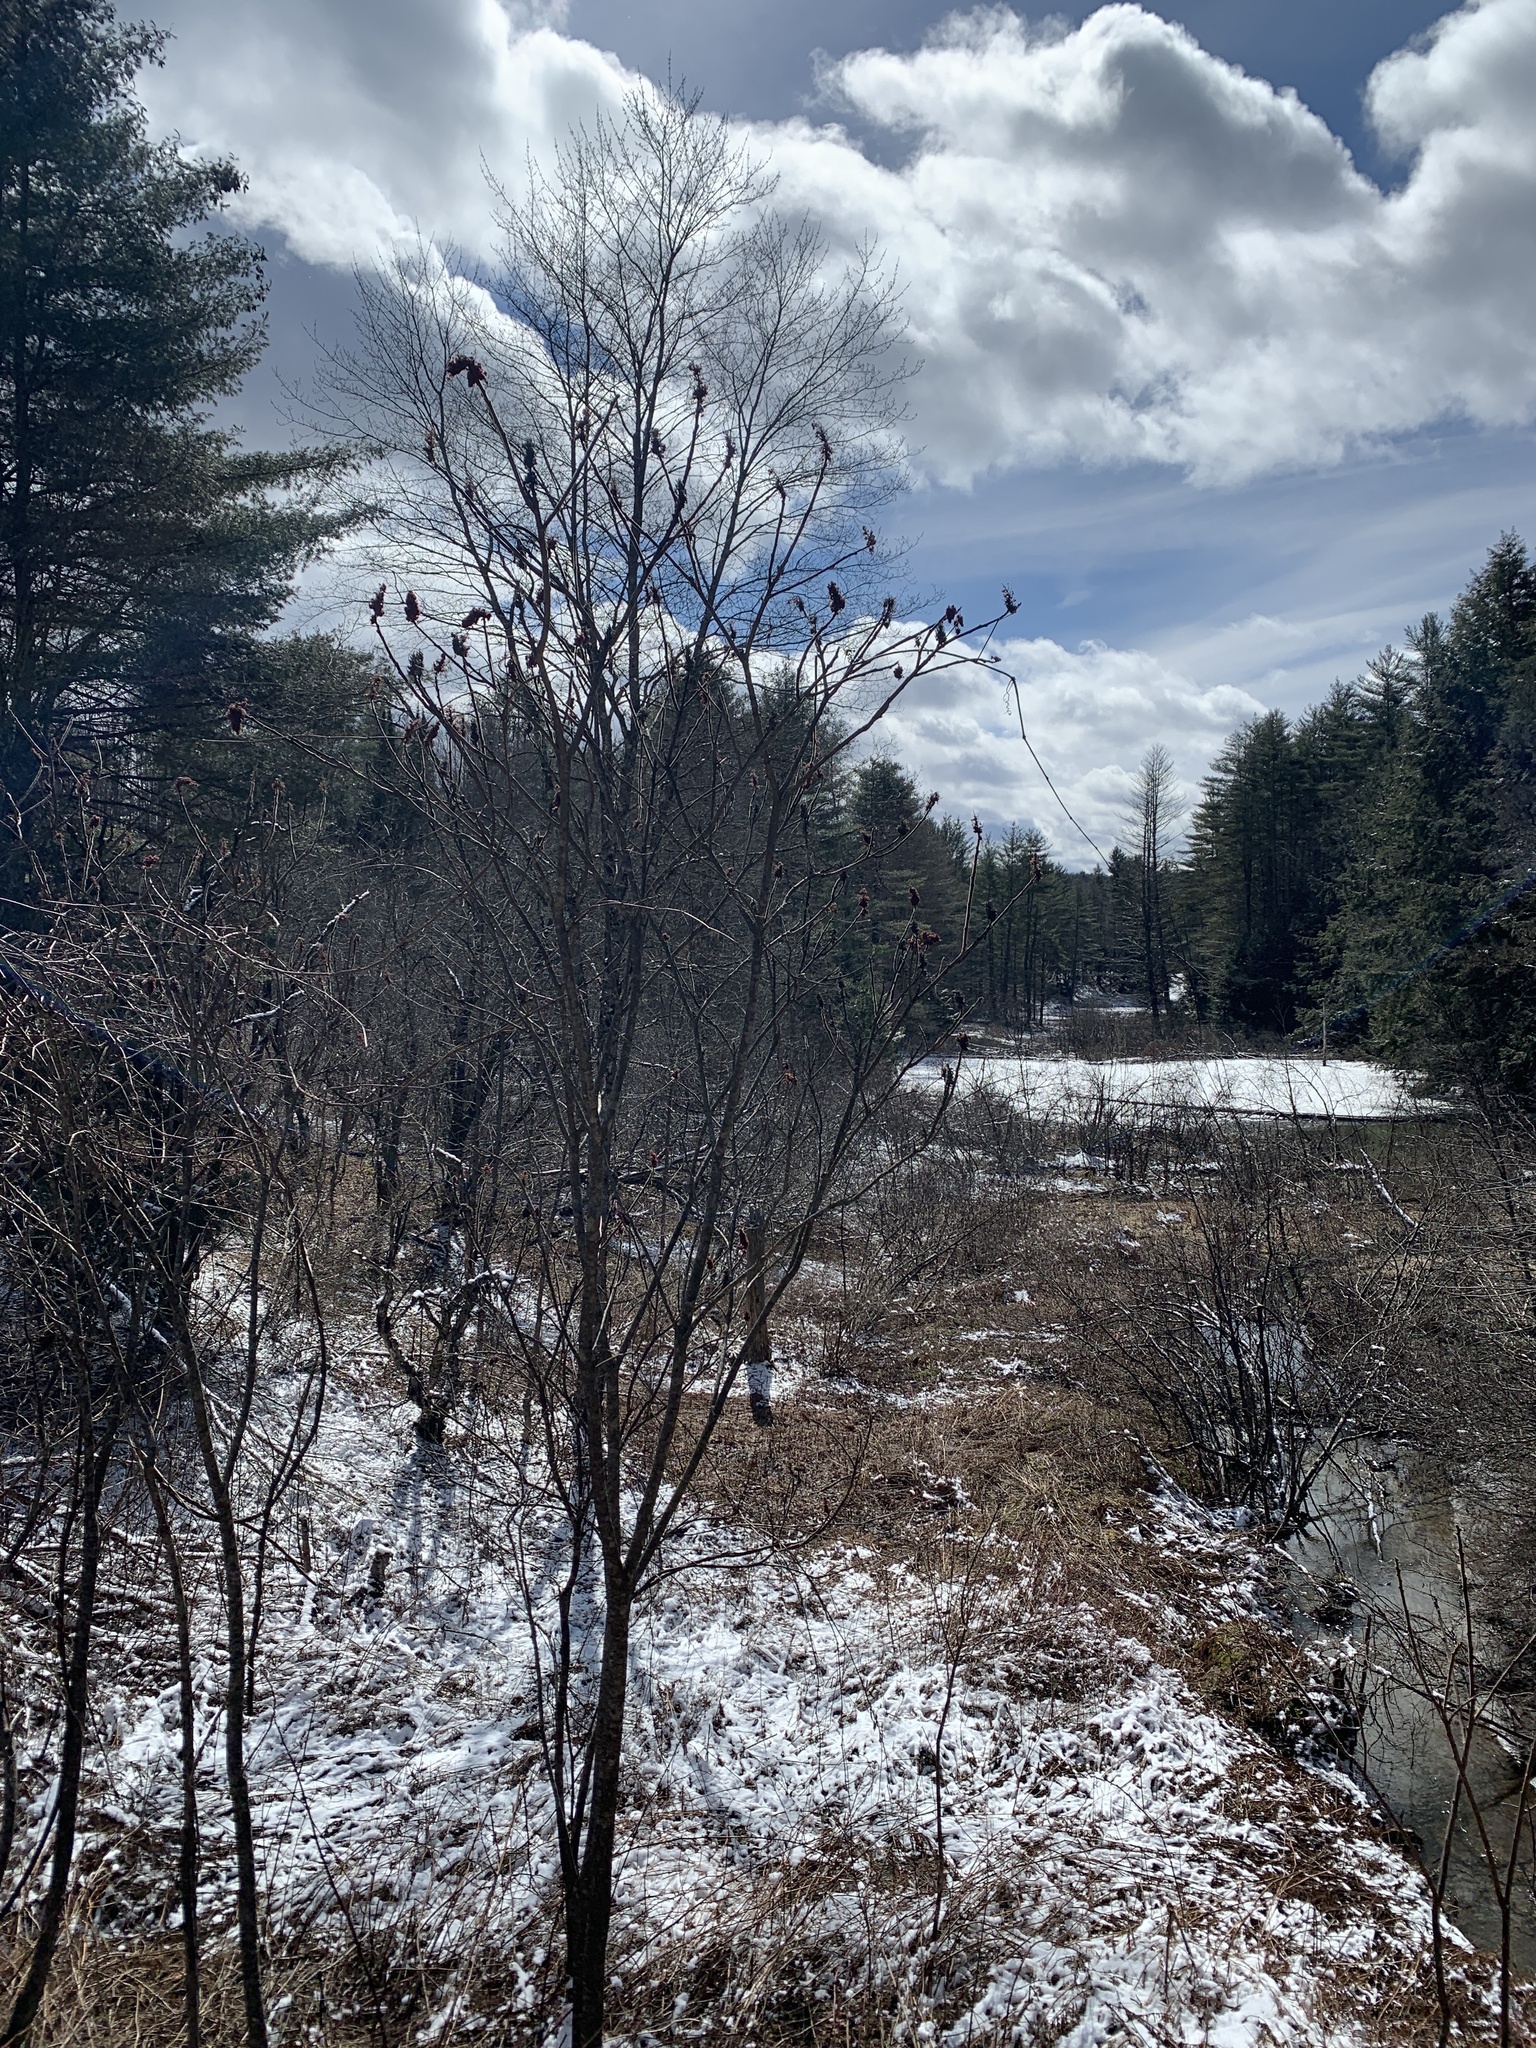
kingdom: Plantae
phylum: Tracheophyta
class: Magnoliopsida
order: Sapindales
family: Anacardiaceae
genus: Rhus
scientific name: Rhus typhina
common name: Staghorn sumac
